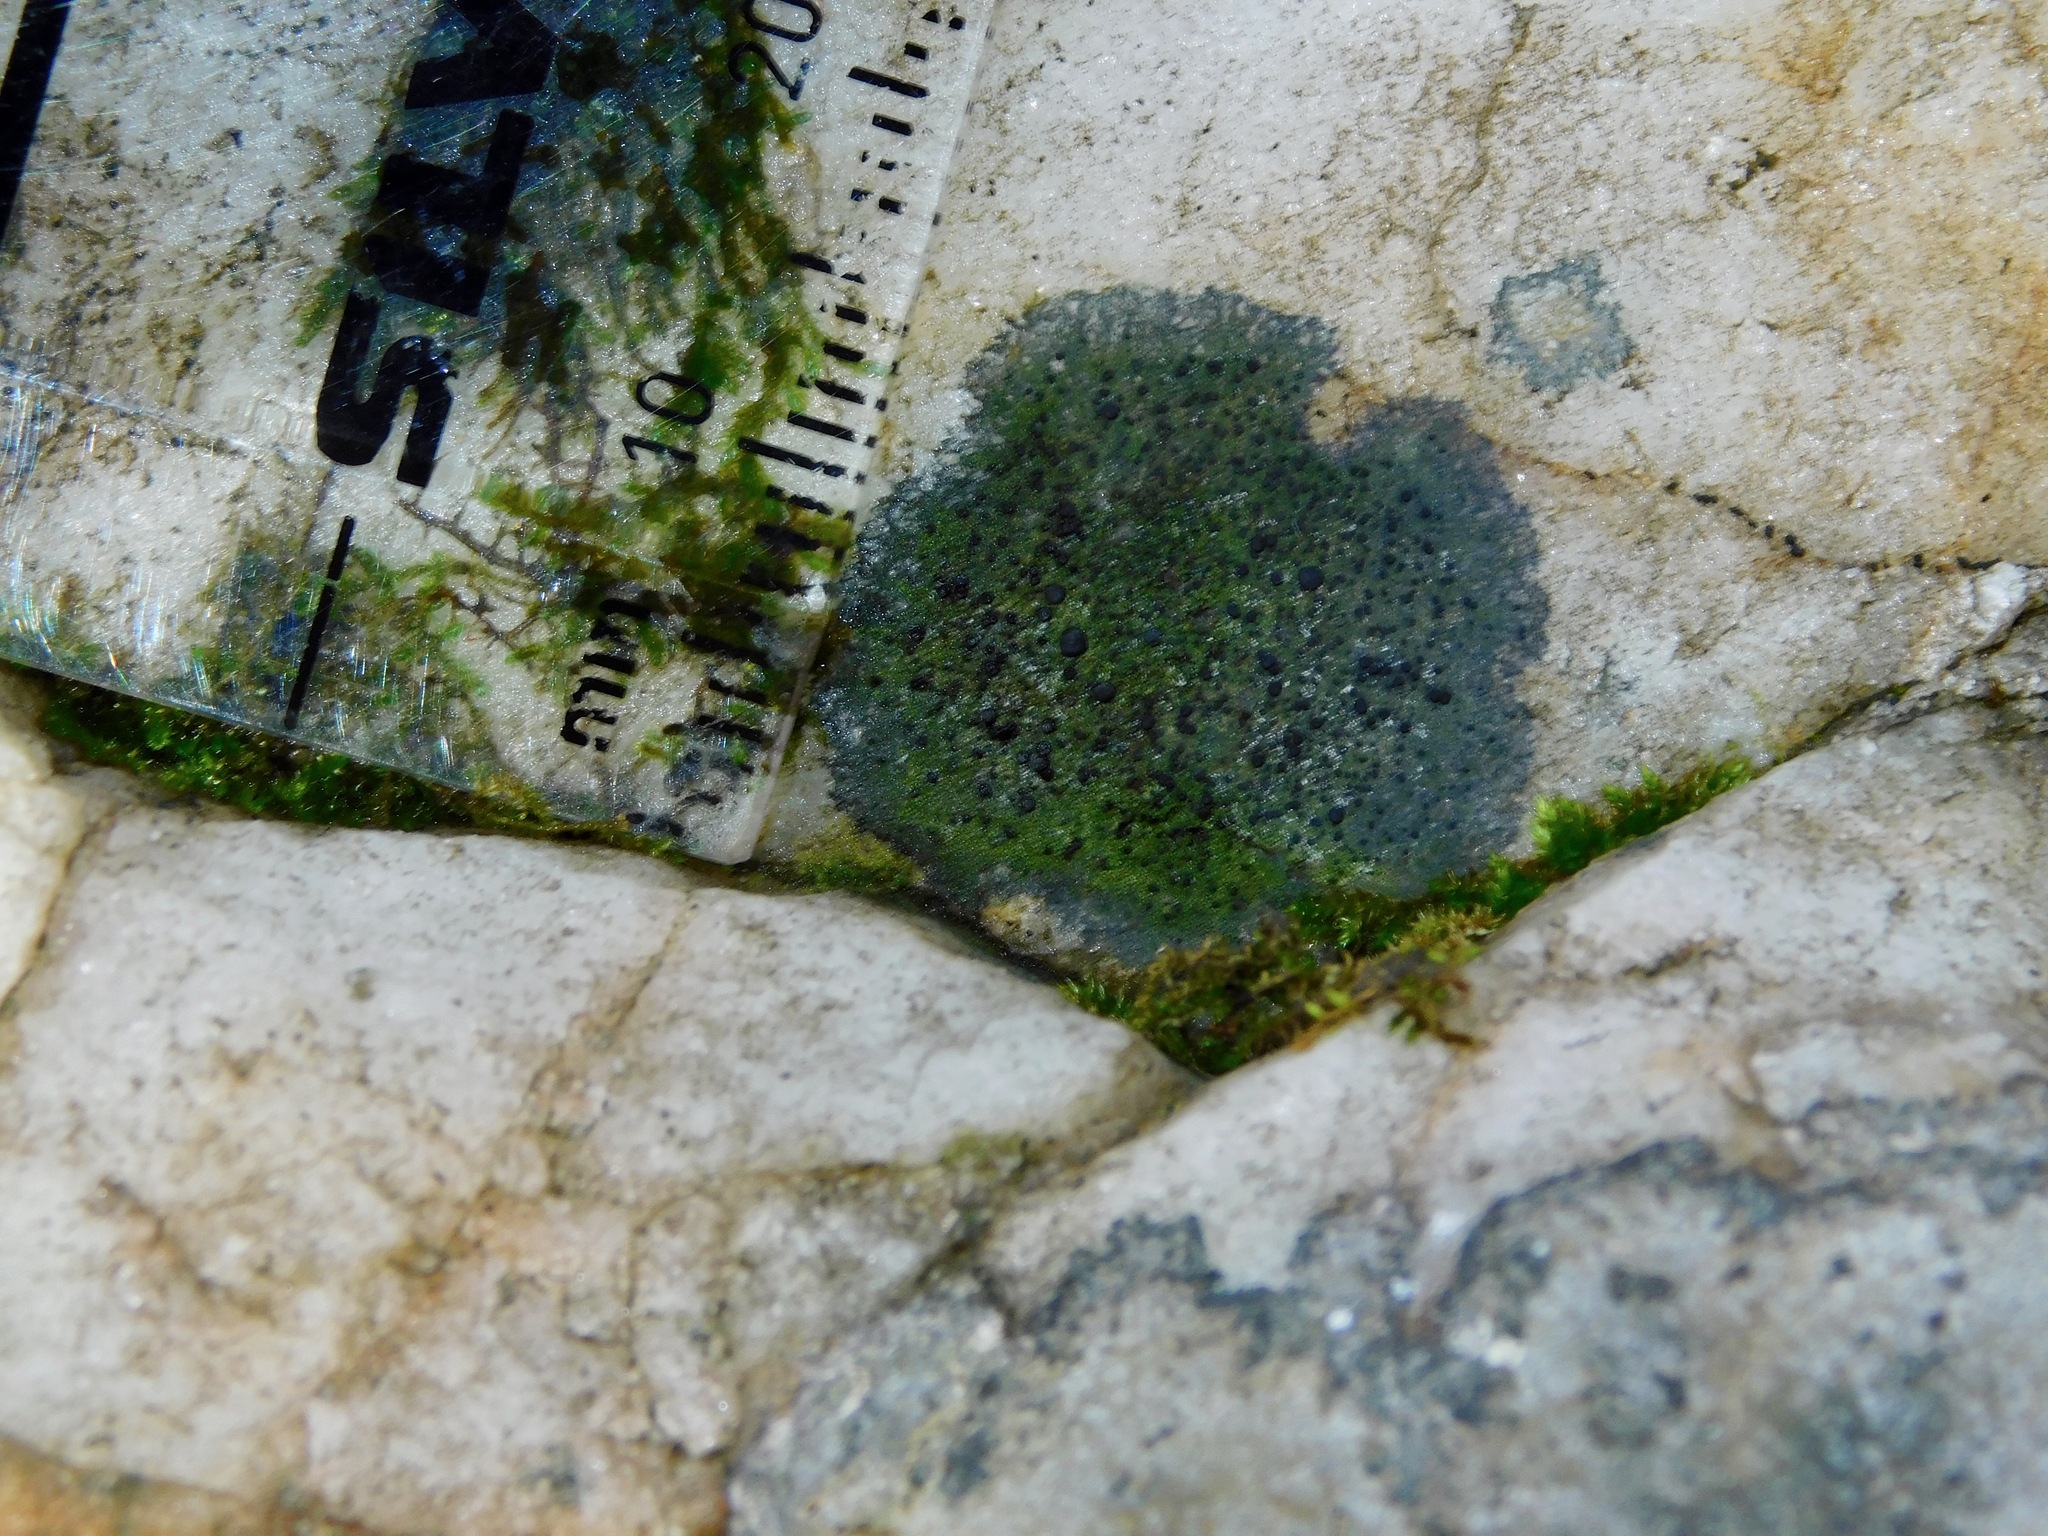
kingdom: Fungi
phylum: Ascomycota
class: Lecanoromycetes
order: Lecanorales
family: Scoliciosporaceae
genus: Scoliciosporum
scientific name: Scoliciosporum umbrinum
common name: Umber dot lichen
